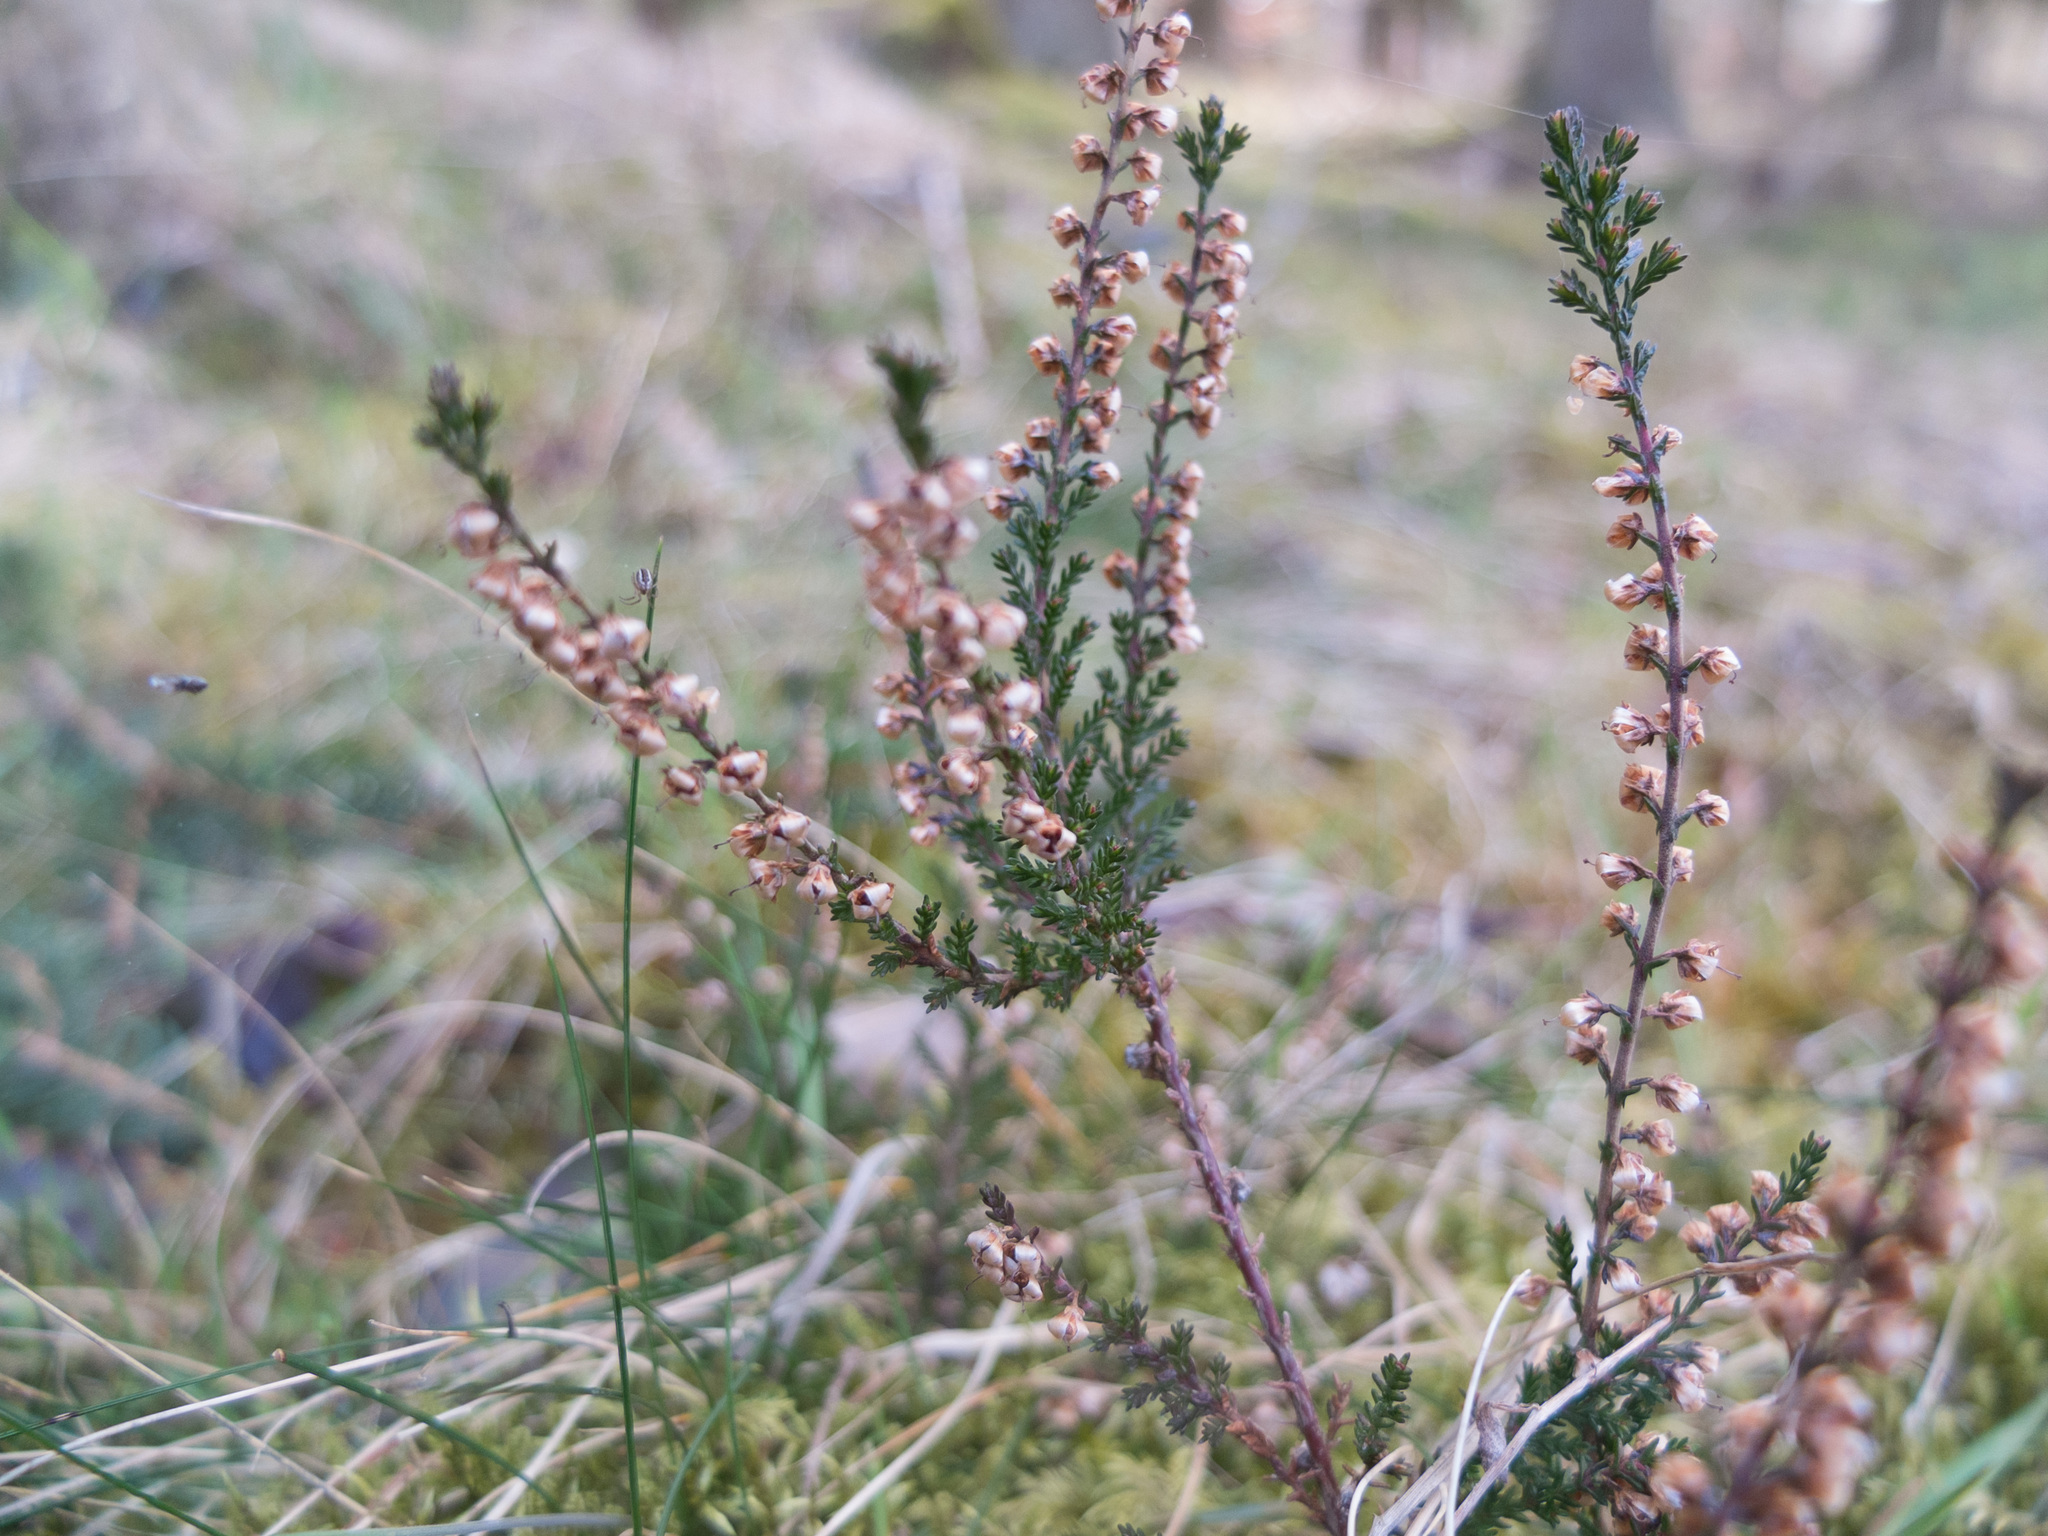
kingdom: Plantae
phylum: Tracheophyta
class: Magnoliopsida
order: Ericales
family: Ericaceae
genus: Calluna
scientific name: Calluna vulgaris
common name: Heather
